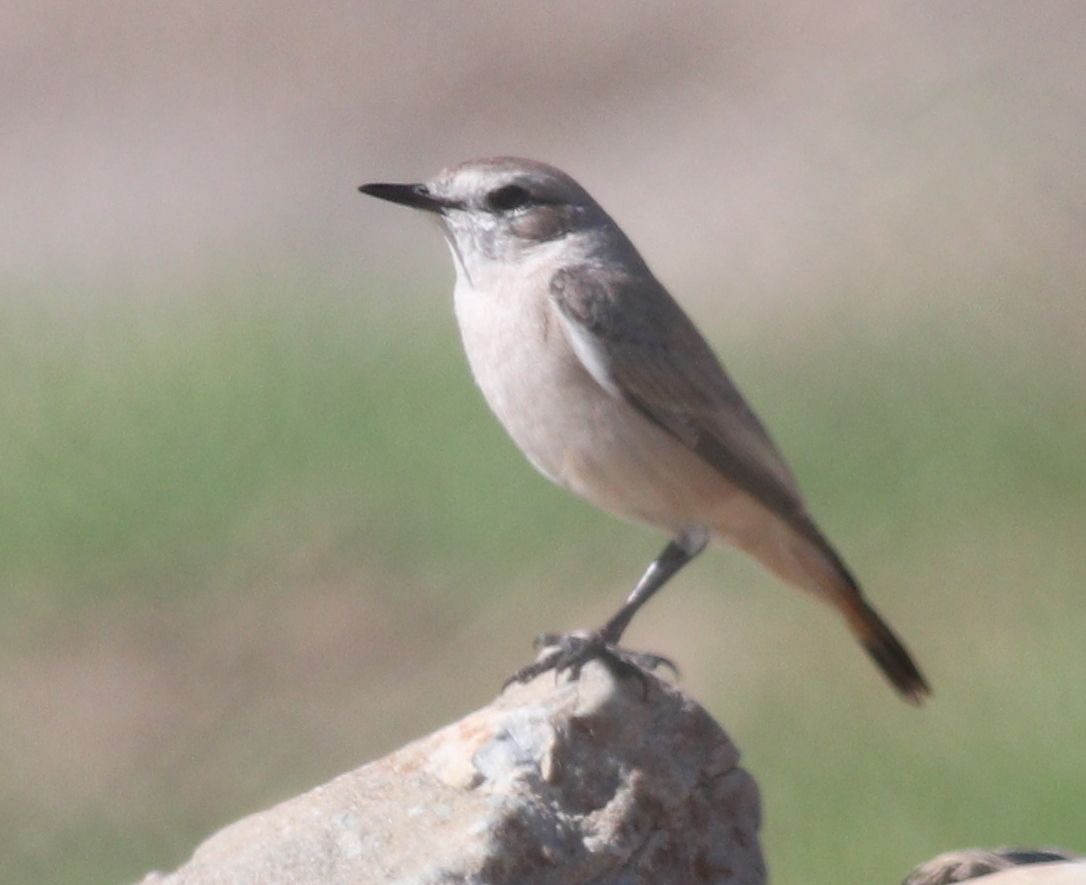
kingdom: Animalia
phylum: Chordata
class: Aves
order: Passeriformes
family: Muscicapidae
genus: Oenanthe
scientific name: Oenanthe isabellina
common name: Isabelline wheatear
